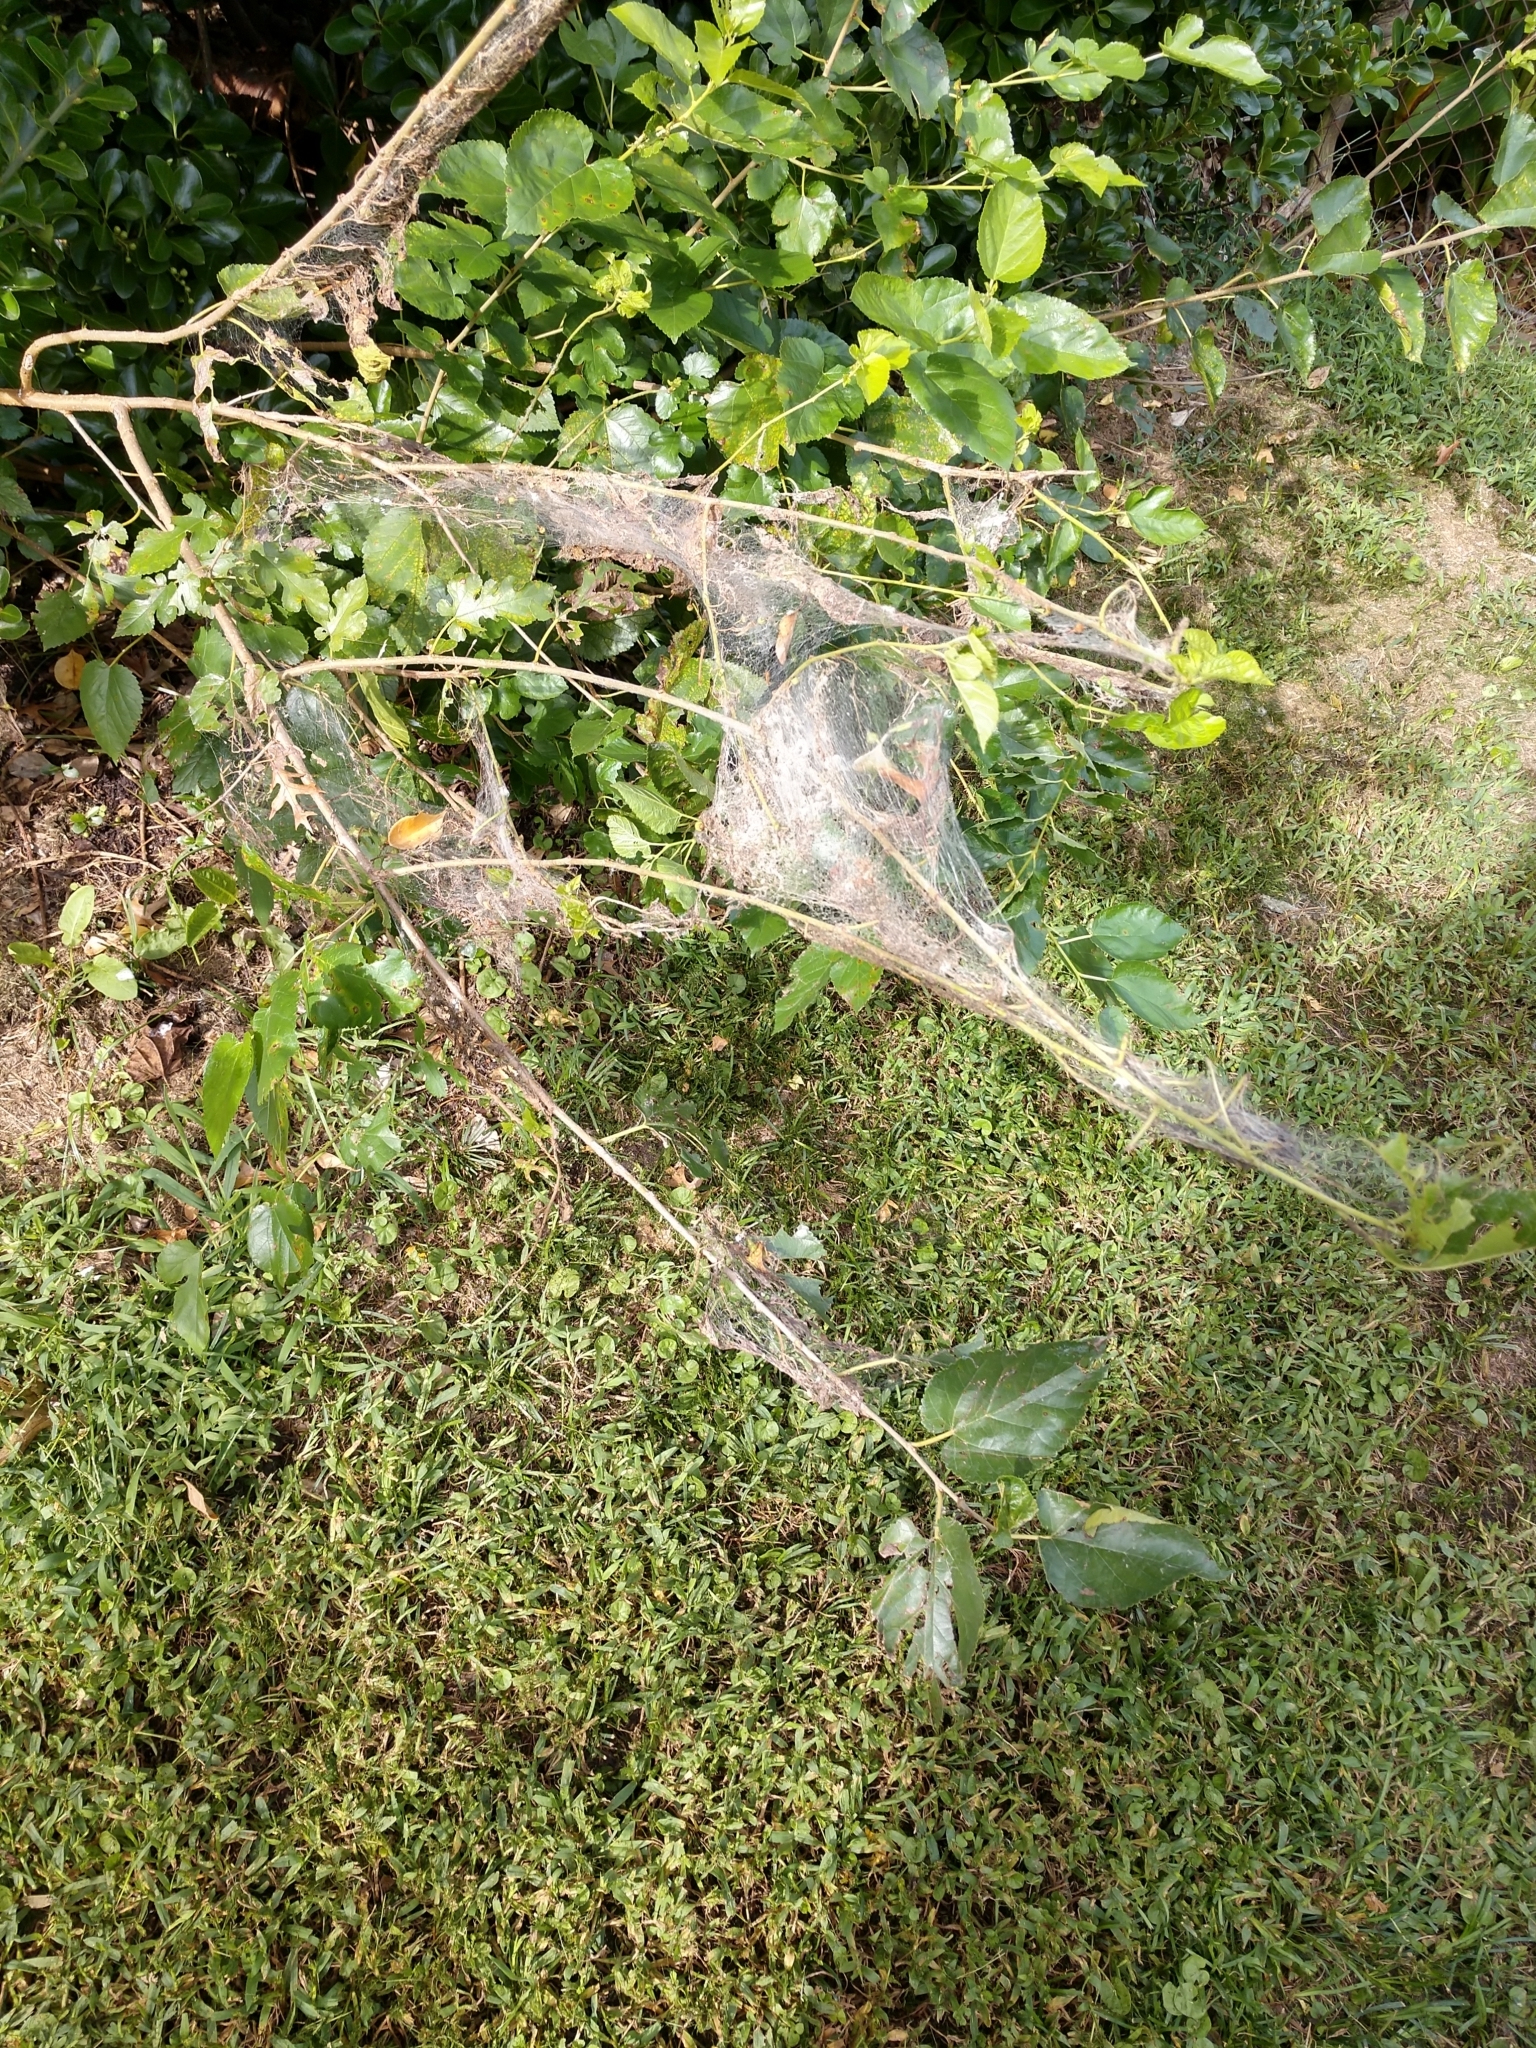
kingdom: Animalia
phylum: Arthropoda
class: Insecta
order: Lepidoptera
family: Erebidae
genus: Hyphantria
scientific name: Hyphantria cunea
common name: American white moth
